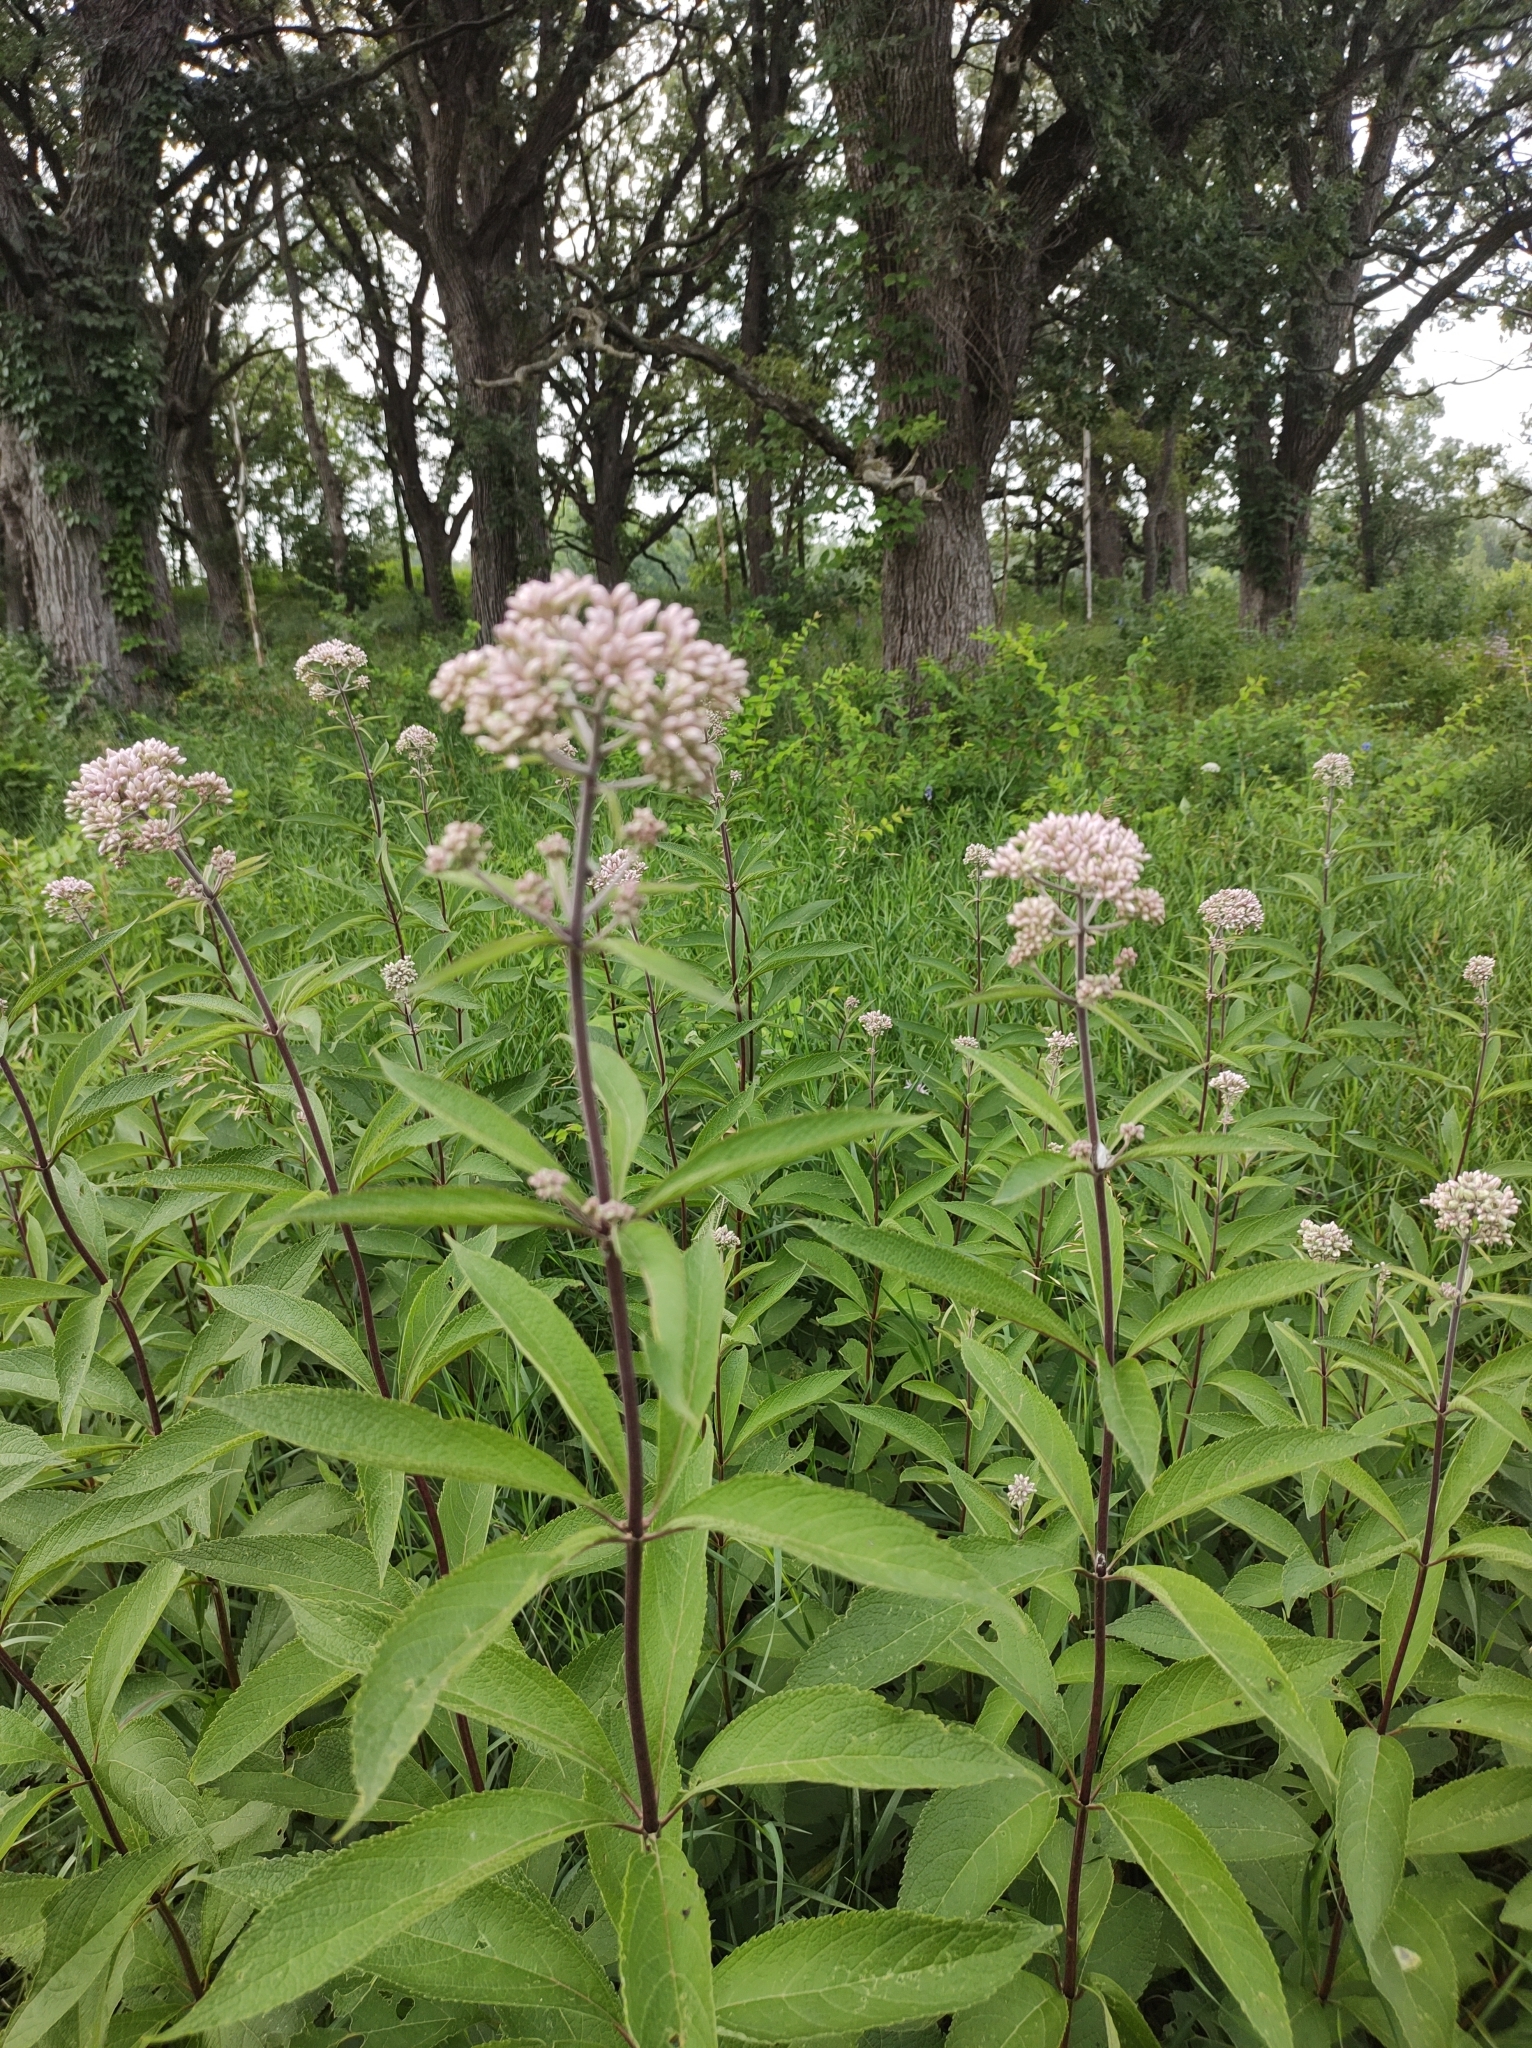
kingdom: Plantae
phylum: Tracheophyta
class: Magnoliopsida
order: Asterales
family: Asteraceae
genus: Eutrochium
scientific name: Eutrochium maculatum
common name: Spotted joe pye weed
